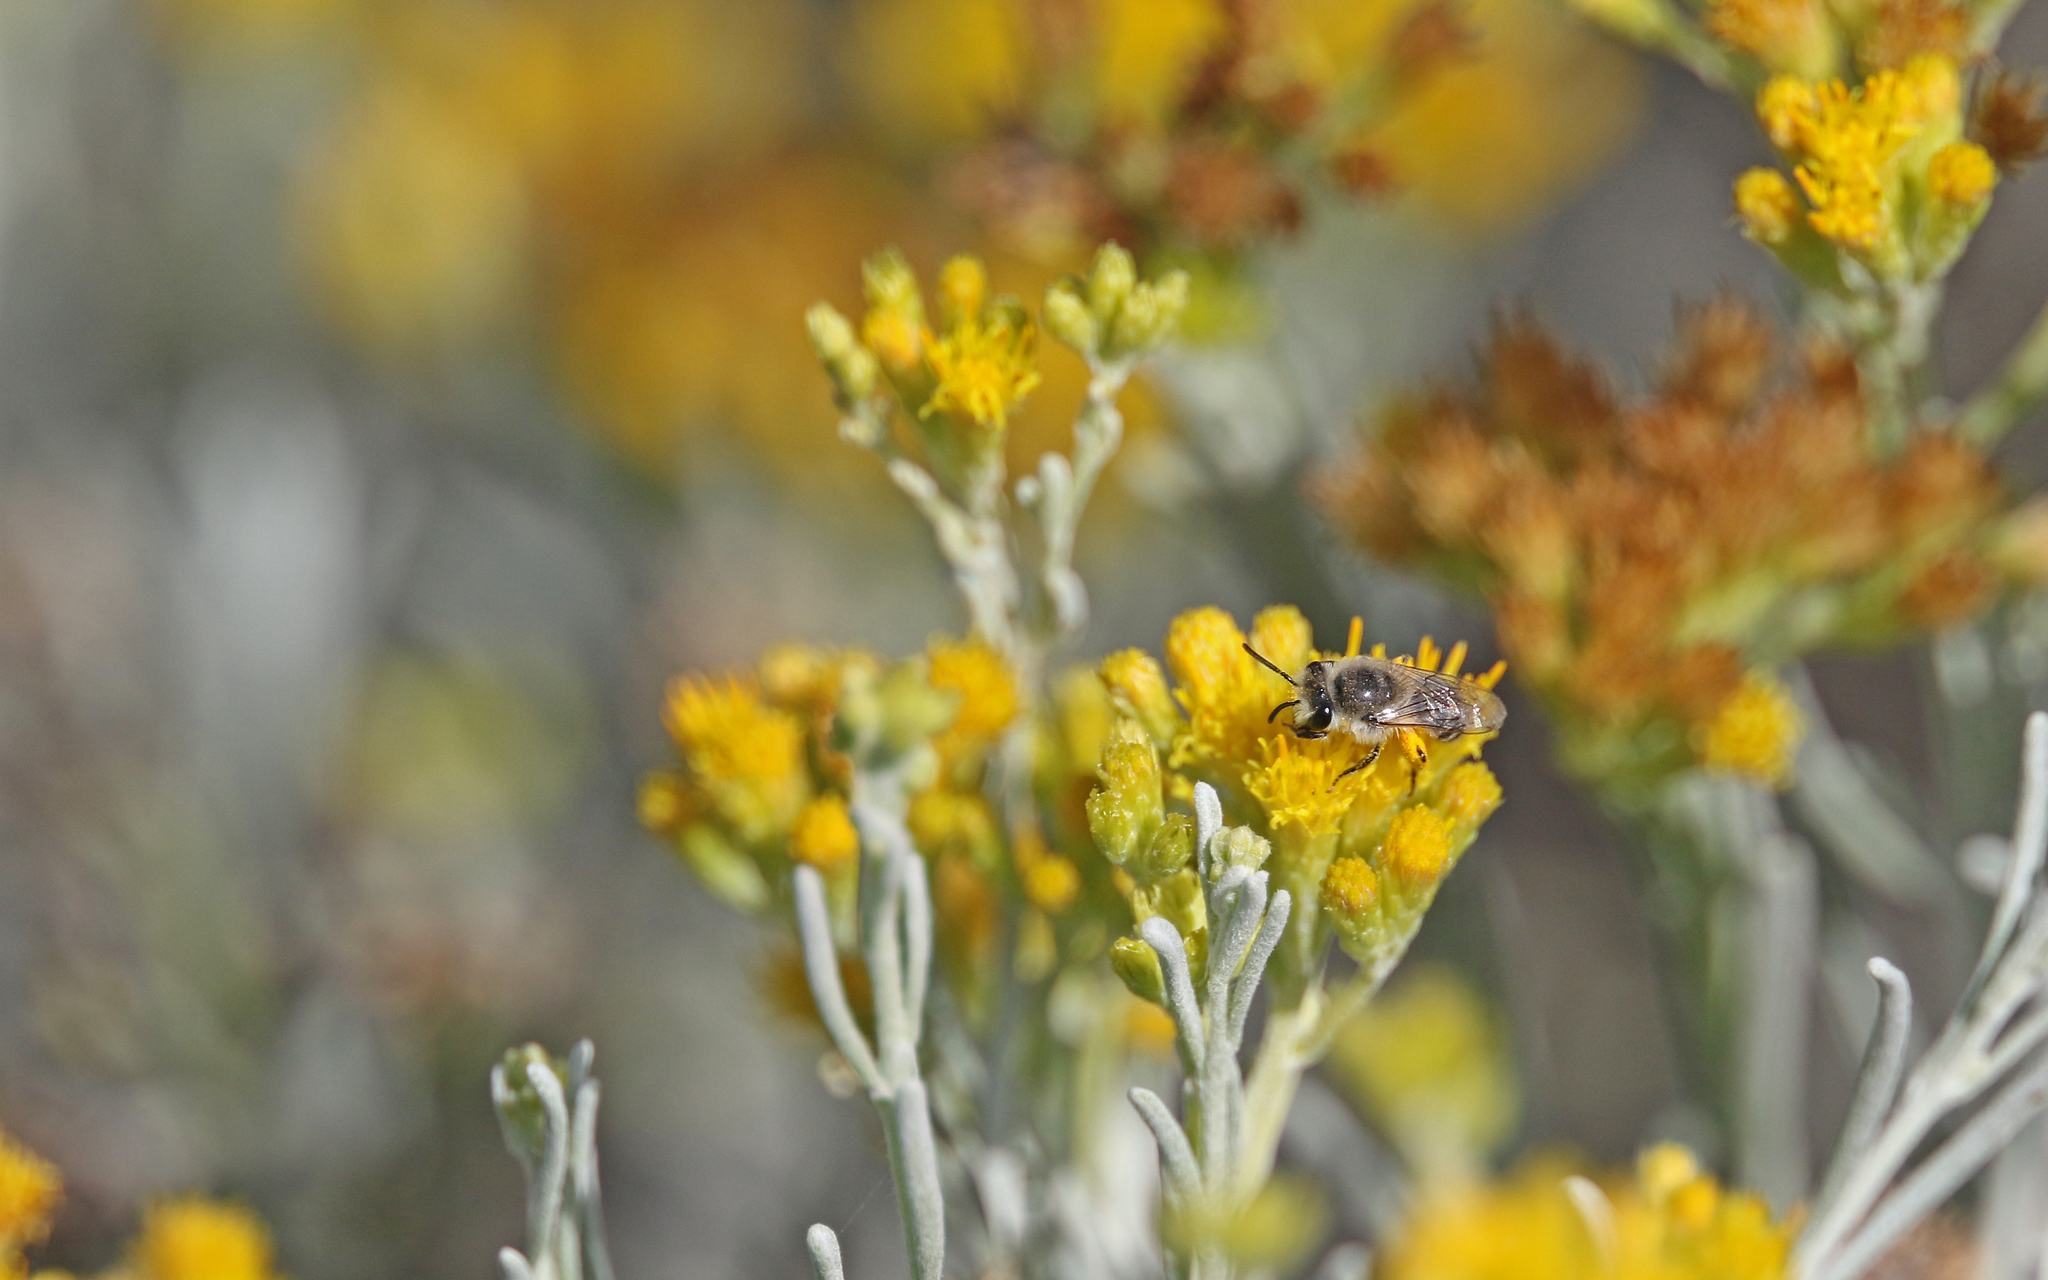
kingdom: Animalia
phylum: Arthropoda
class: Insecta
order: Hymenoptera
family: Colletidae
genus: Colletes
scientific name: Colletes moricei
